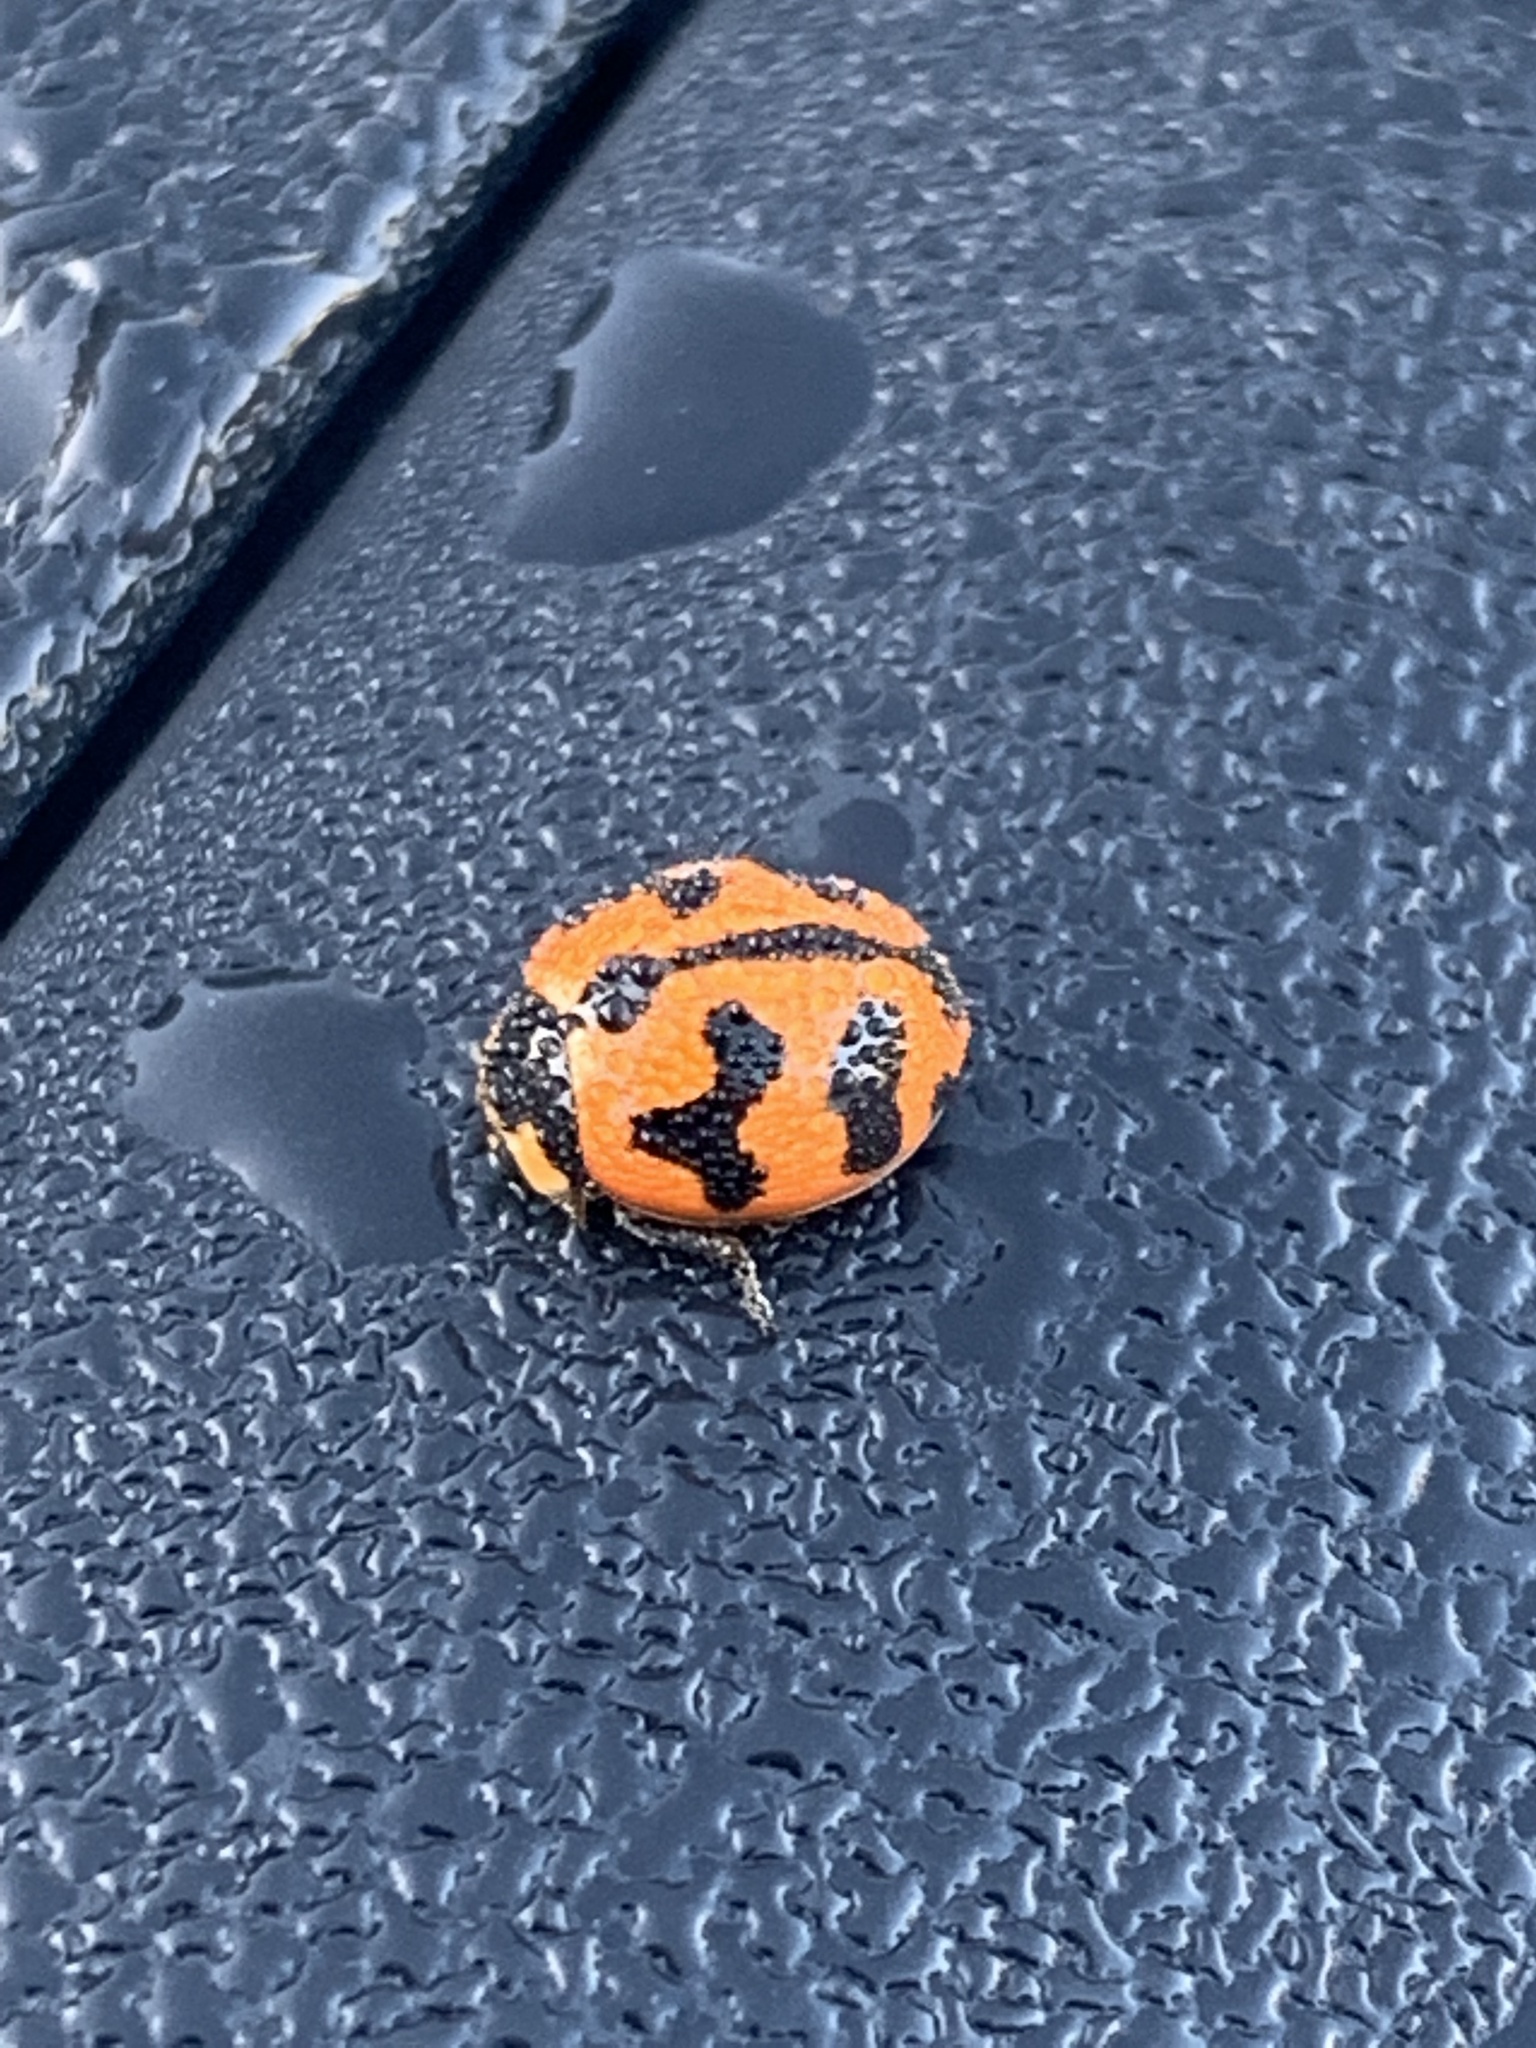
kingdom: Animalia
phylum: Arthropoda
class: Insecta
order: Coleoptera
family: Coccinellidae
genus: Coccinella
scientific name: Coccinella transversalis
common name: Transverse lady beetle
